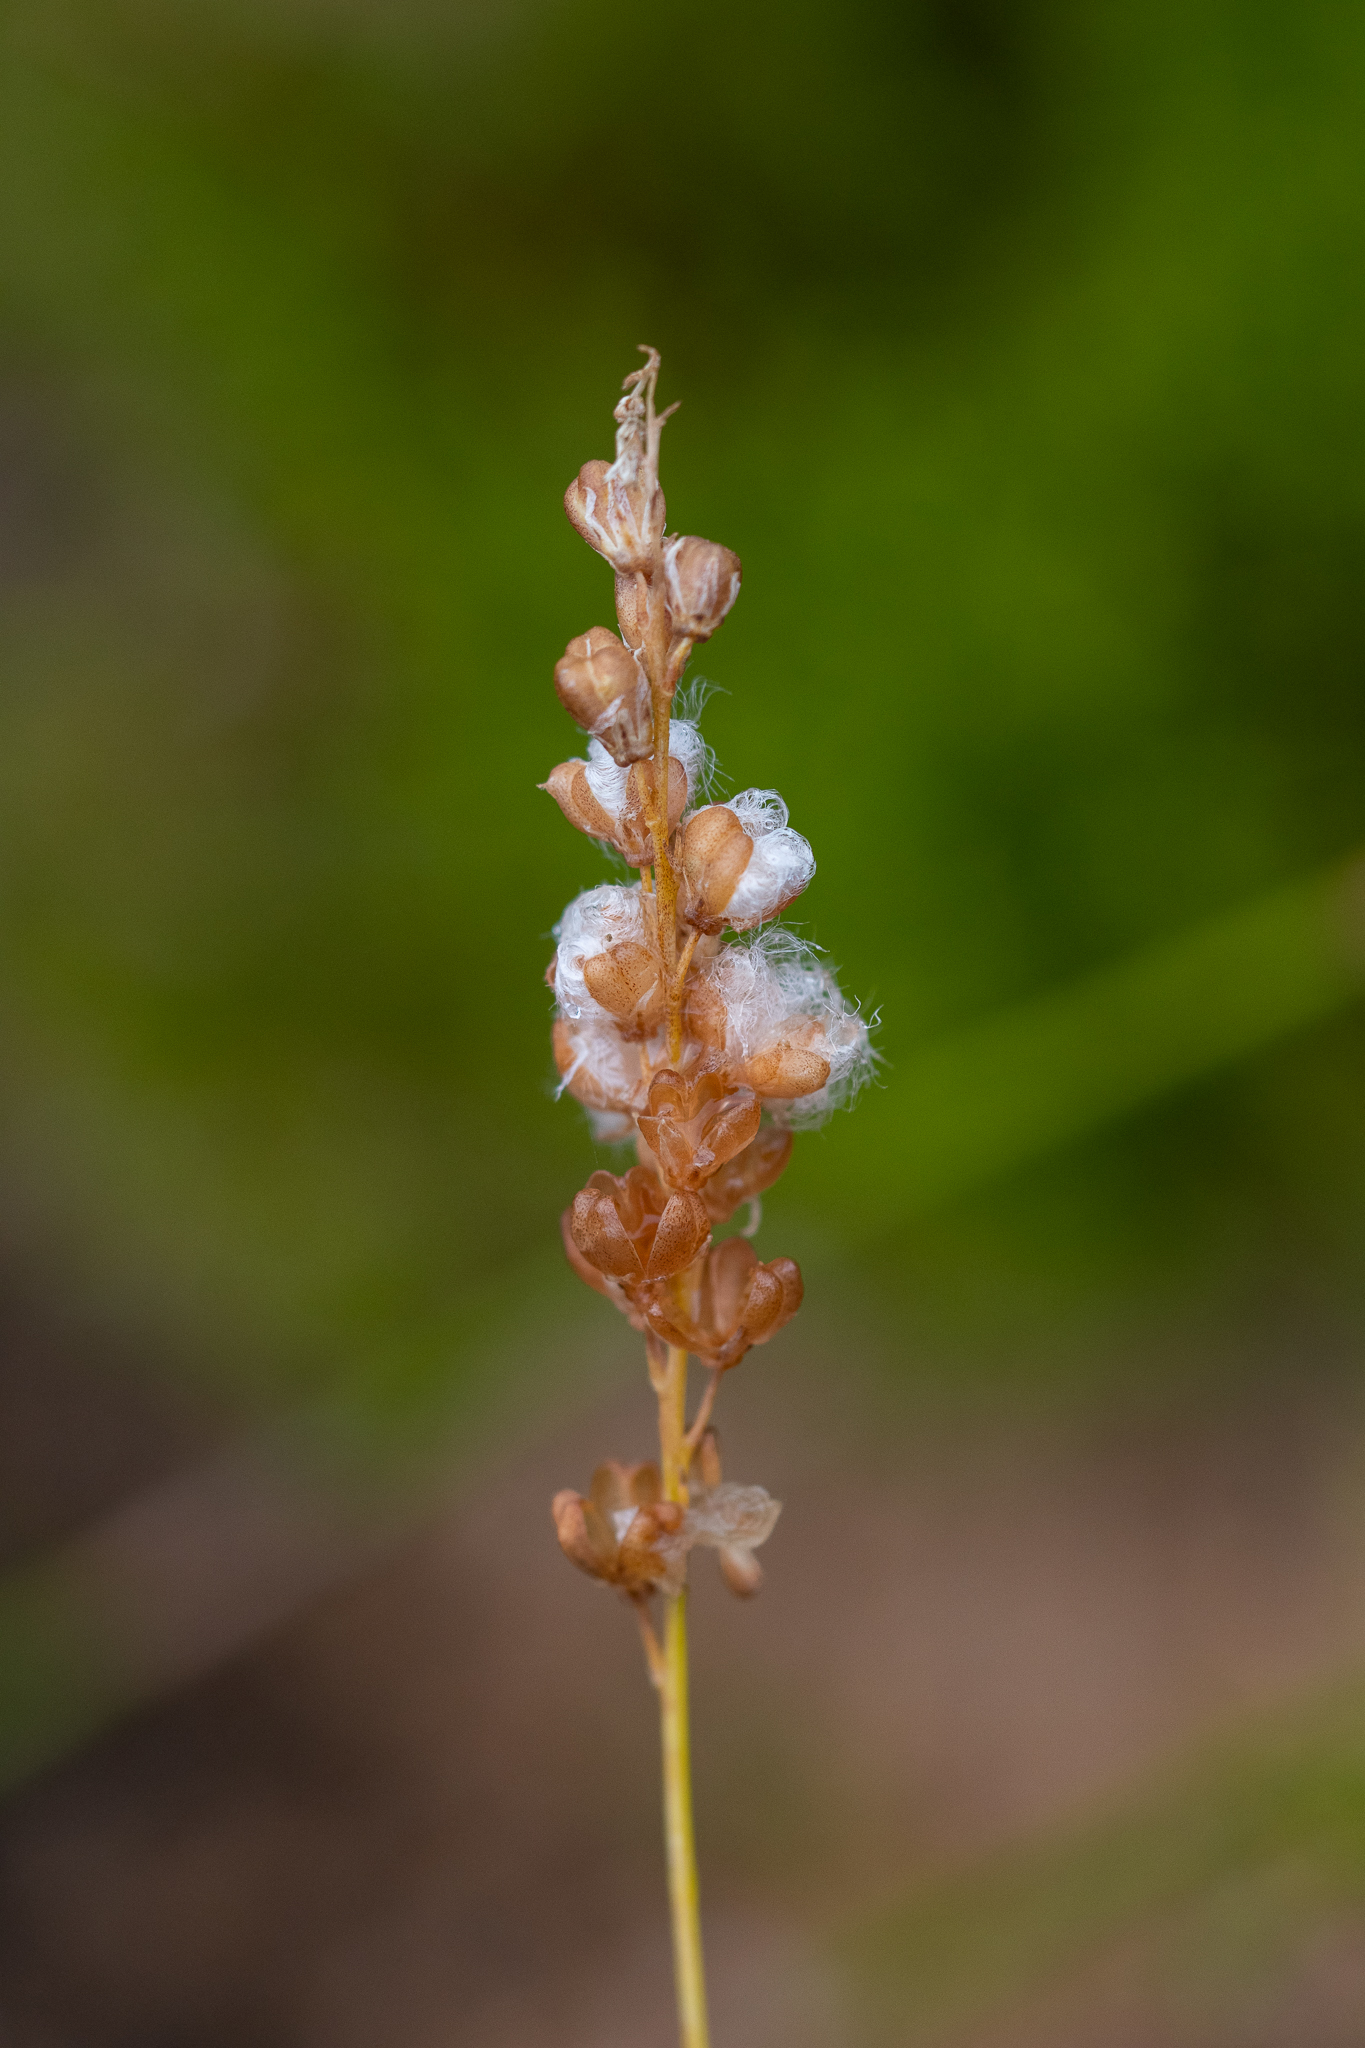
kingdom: Plantae
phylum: Tracheophyta
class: Liliopsida
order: Asparagales
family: Asparagaceae
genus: Eriospermum
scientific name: Eriospermum cernuum
